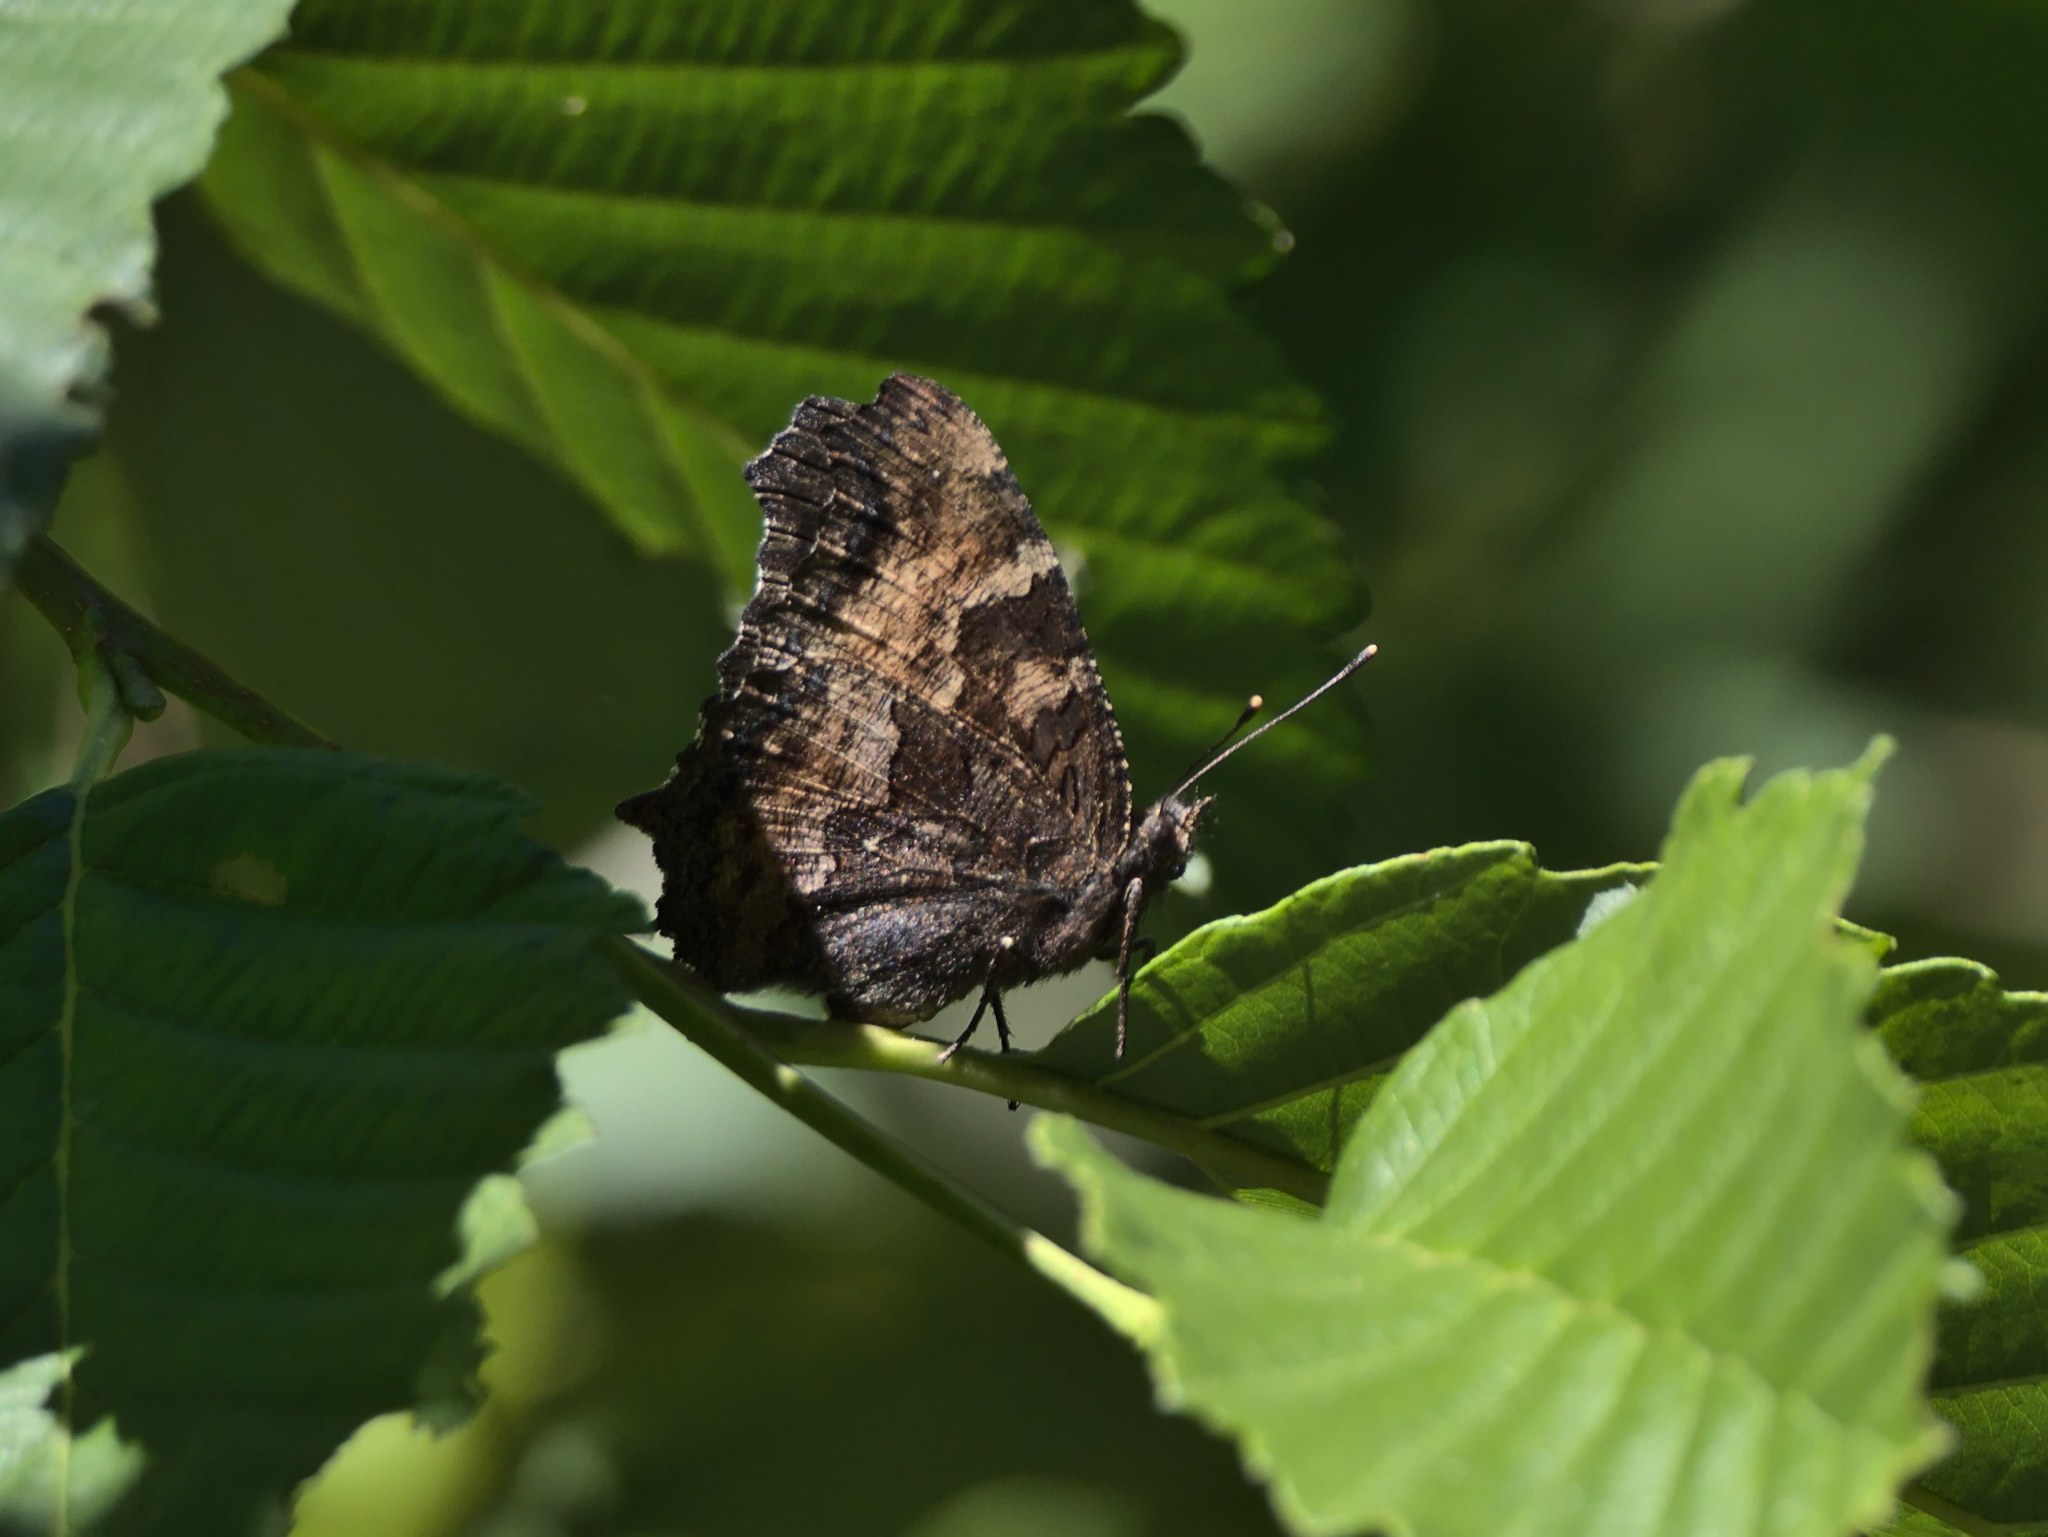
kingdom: Animalia
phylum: Arthropoda
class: Insecta
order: Lepidoptera
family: Nymphalidae
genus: Nymphalis
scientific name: Nymphalis californica
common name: California tortoiseshell
